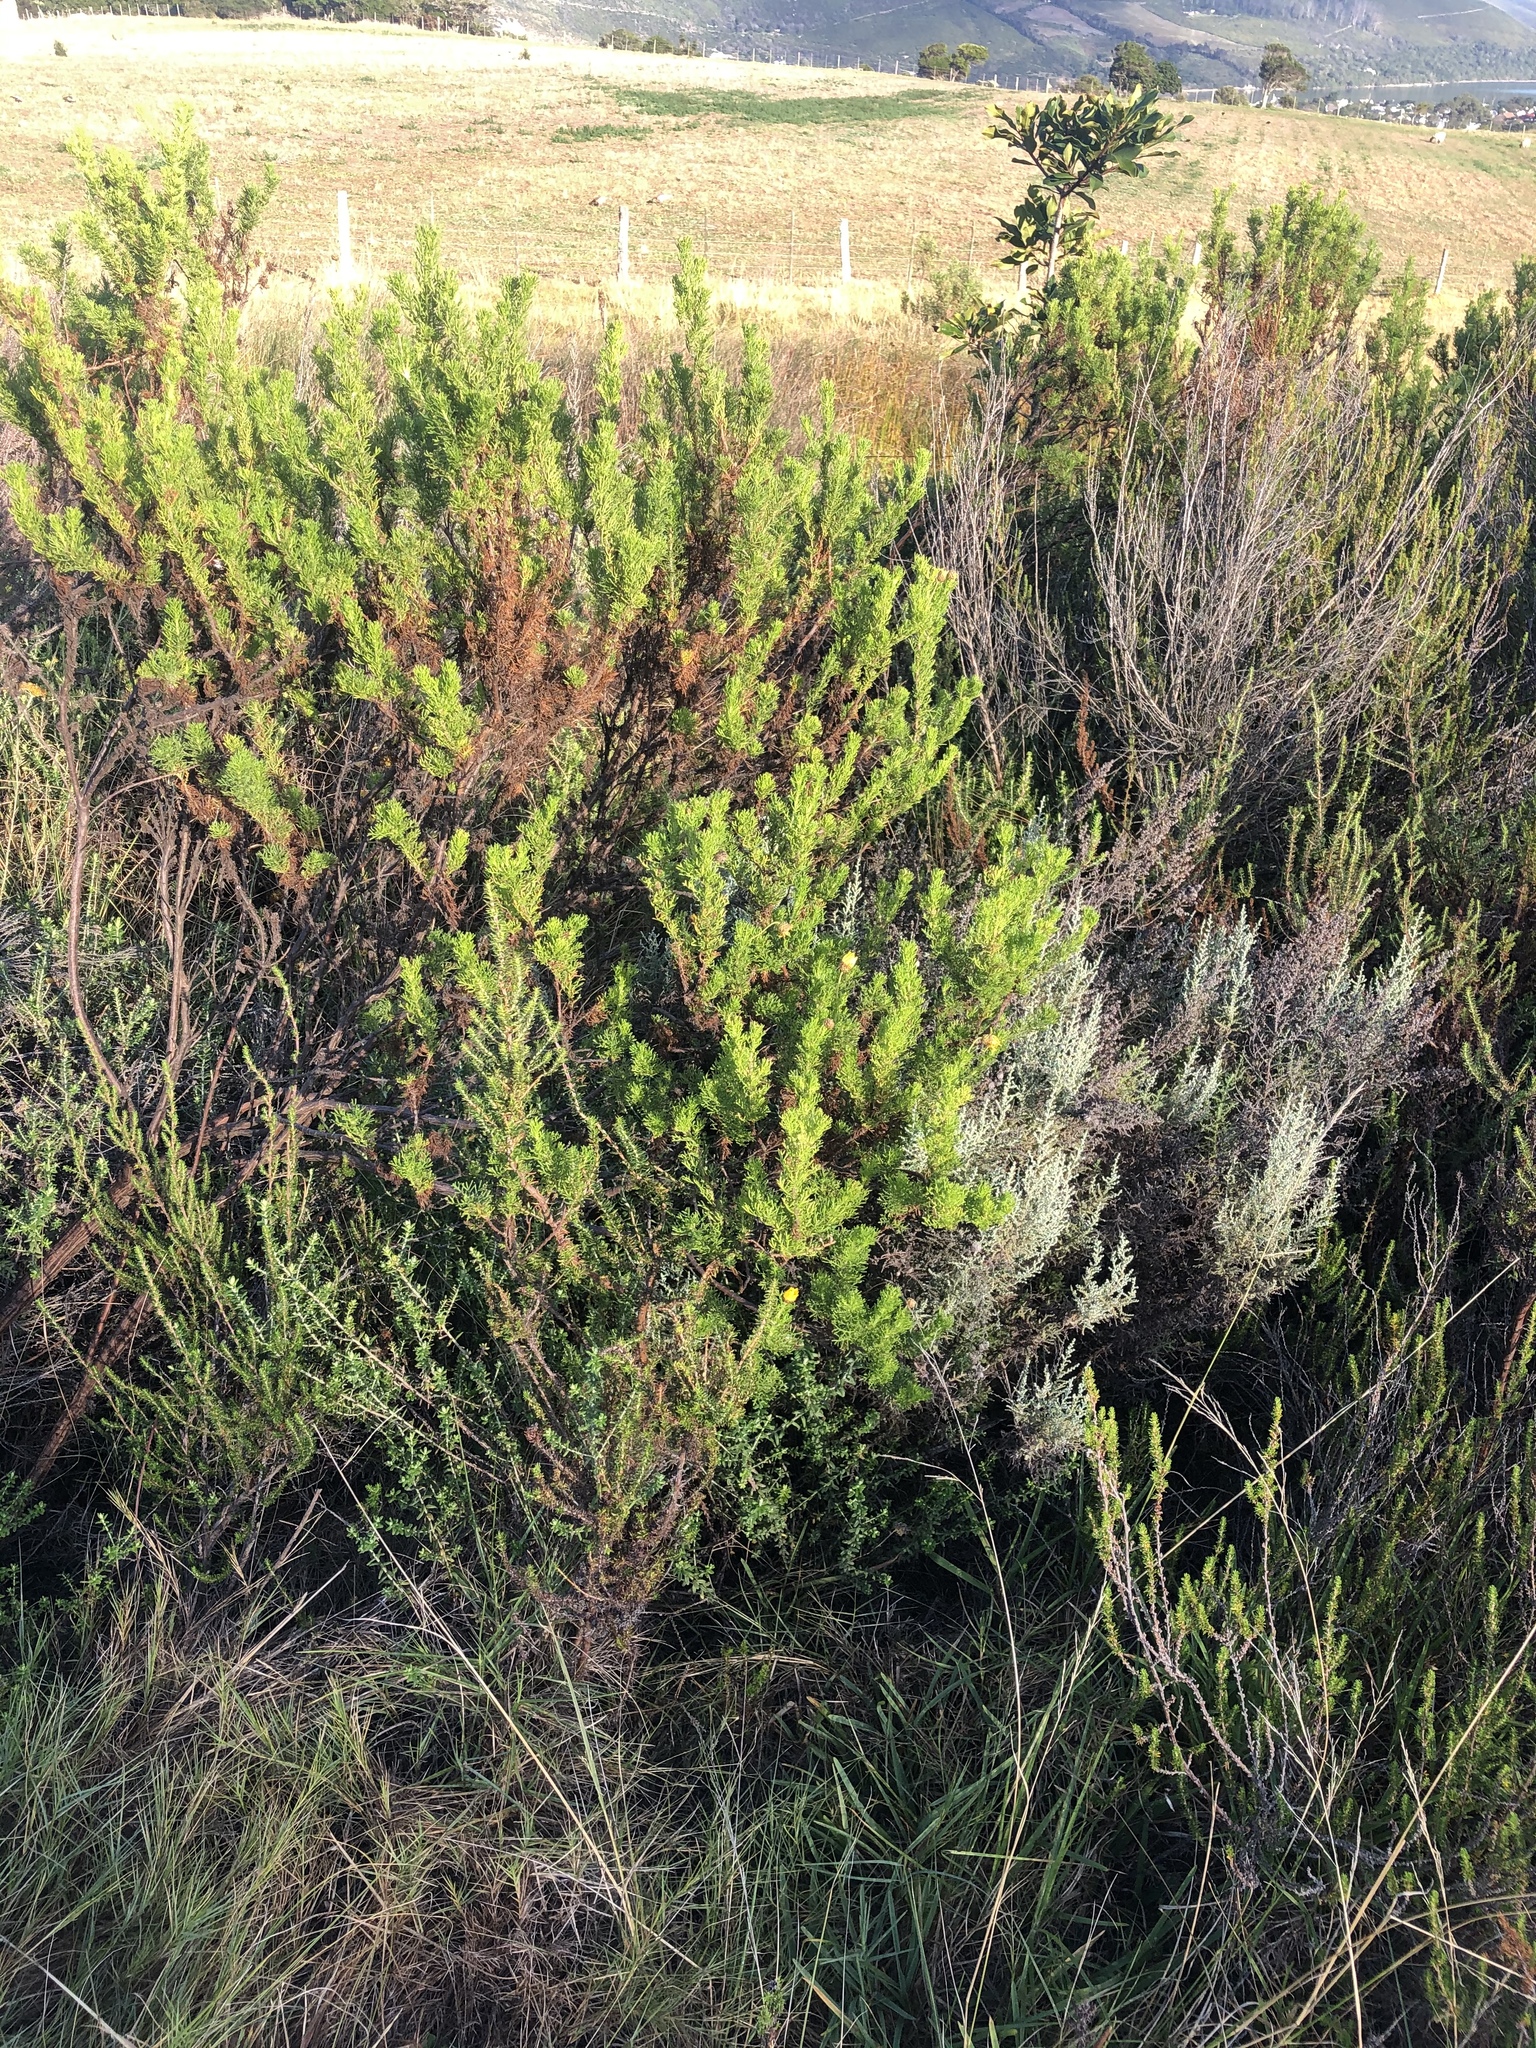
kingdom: Plantae
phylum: Tracheophyta
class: Magnoliopsida
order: Asterales
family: Asteraceae
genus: Ursinia
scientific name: Ursinia scariosa
